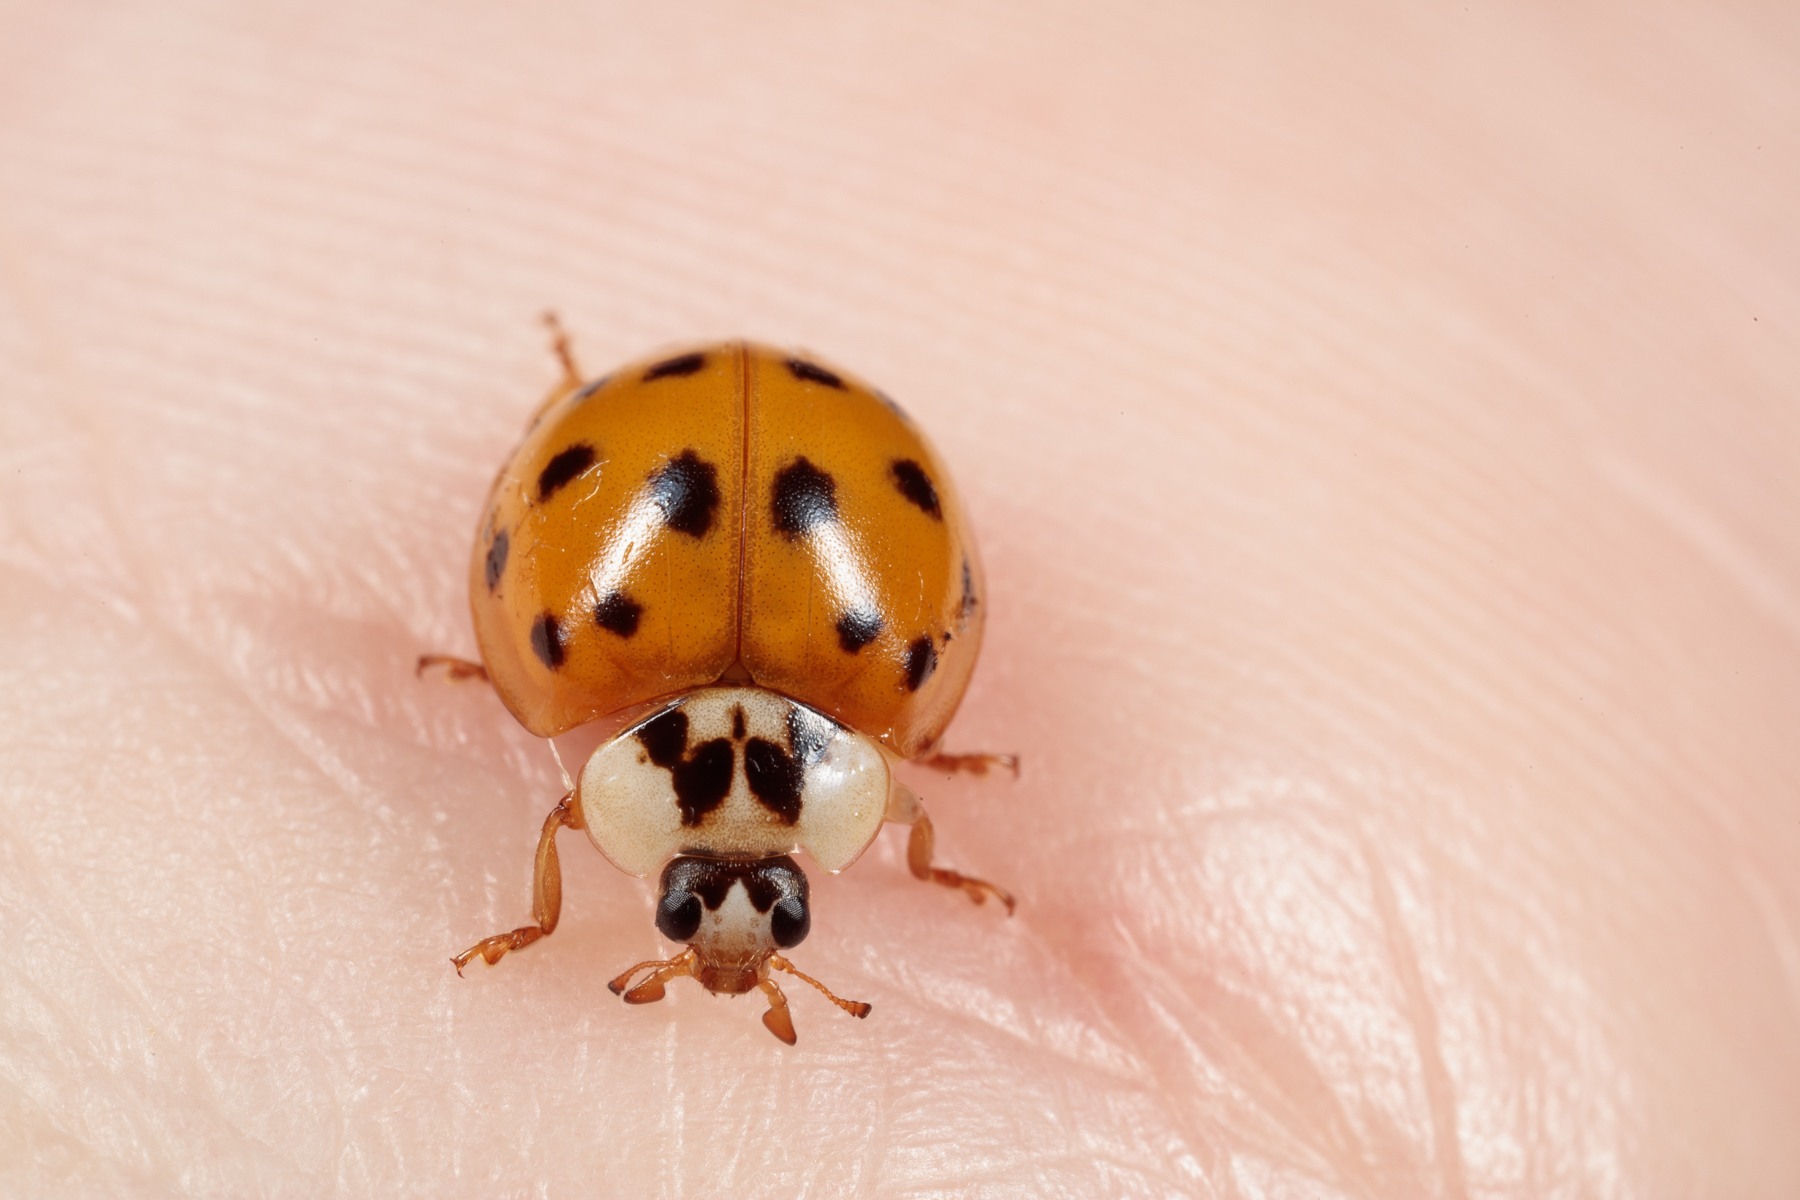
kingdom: Animalia
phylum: Arthropoda
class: Insecta
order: Coleoptera
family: Coccinellidae
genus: Harmonia
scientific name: Harmonia axyridis
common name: Harlequin ladybird
